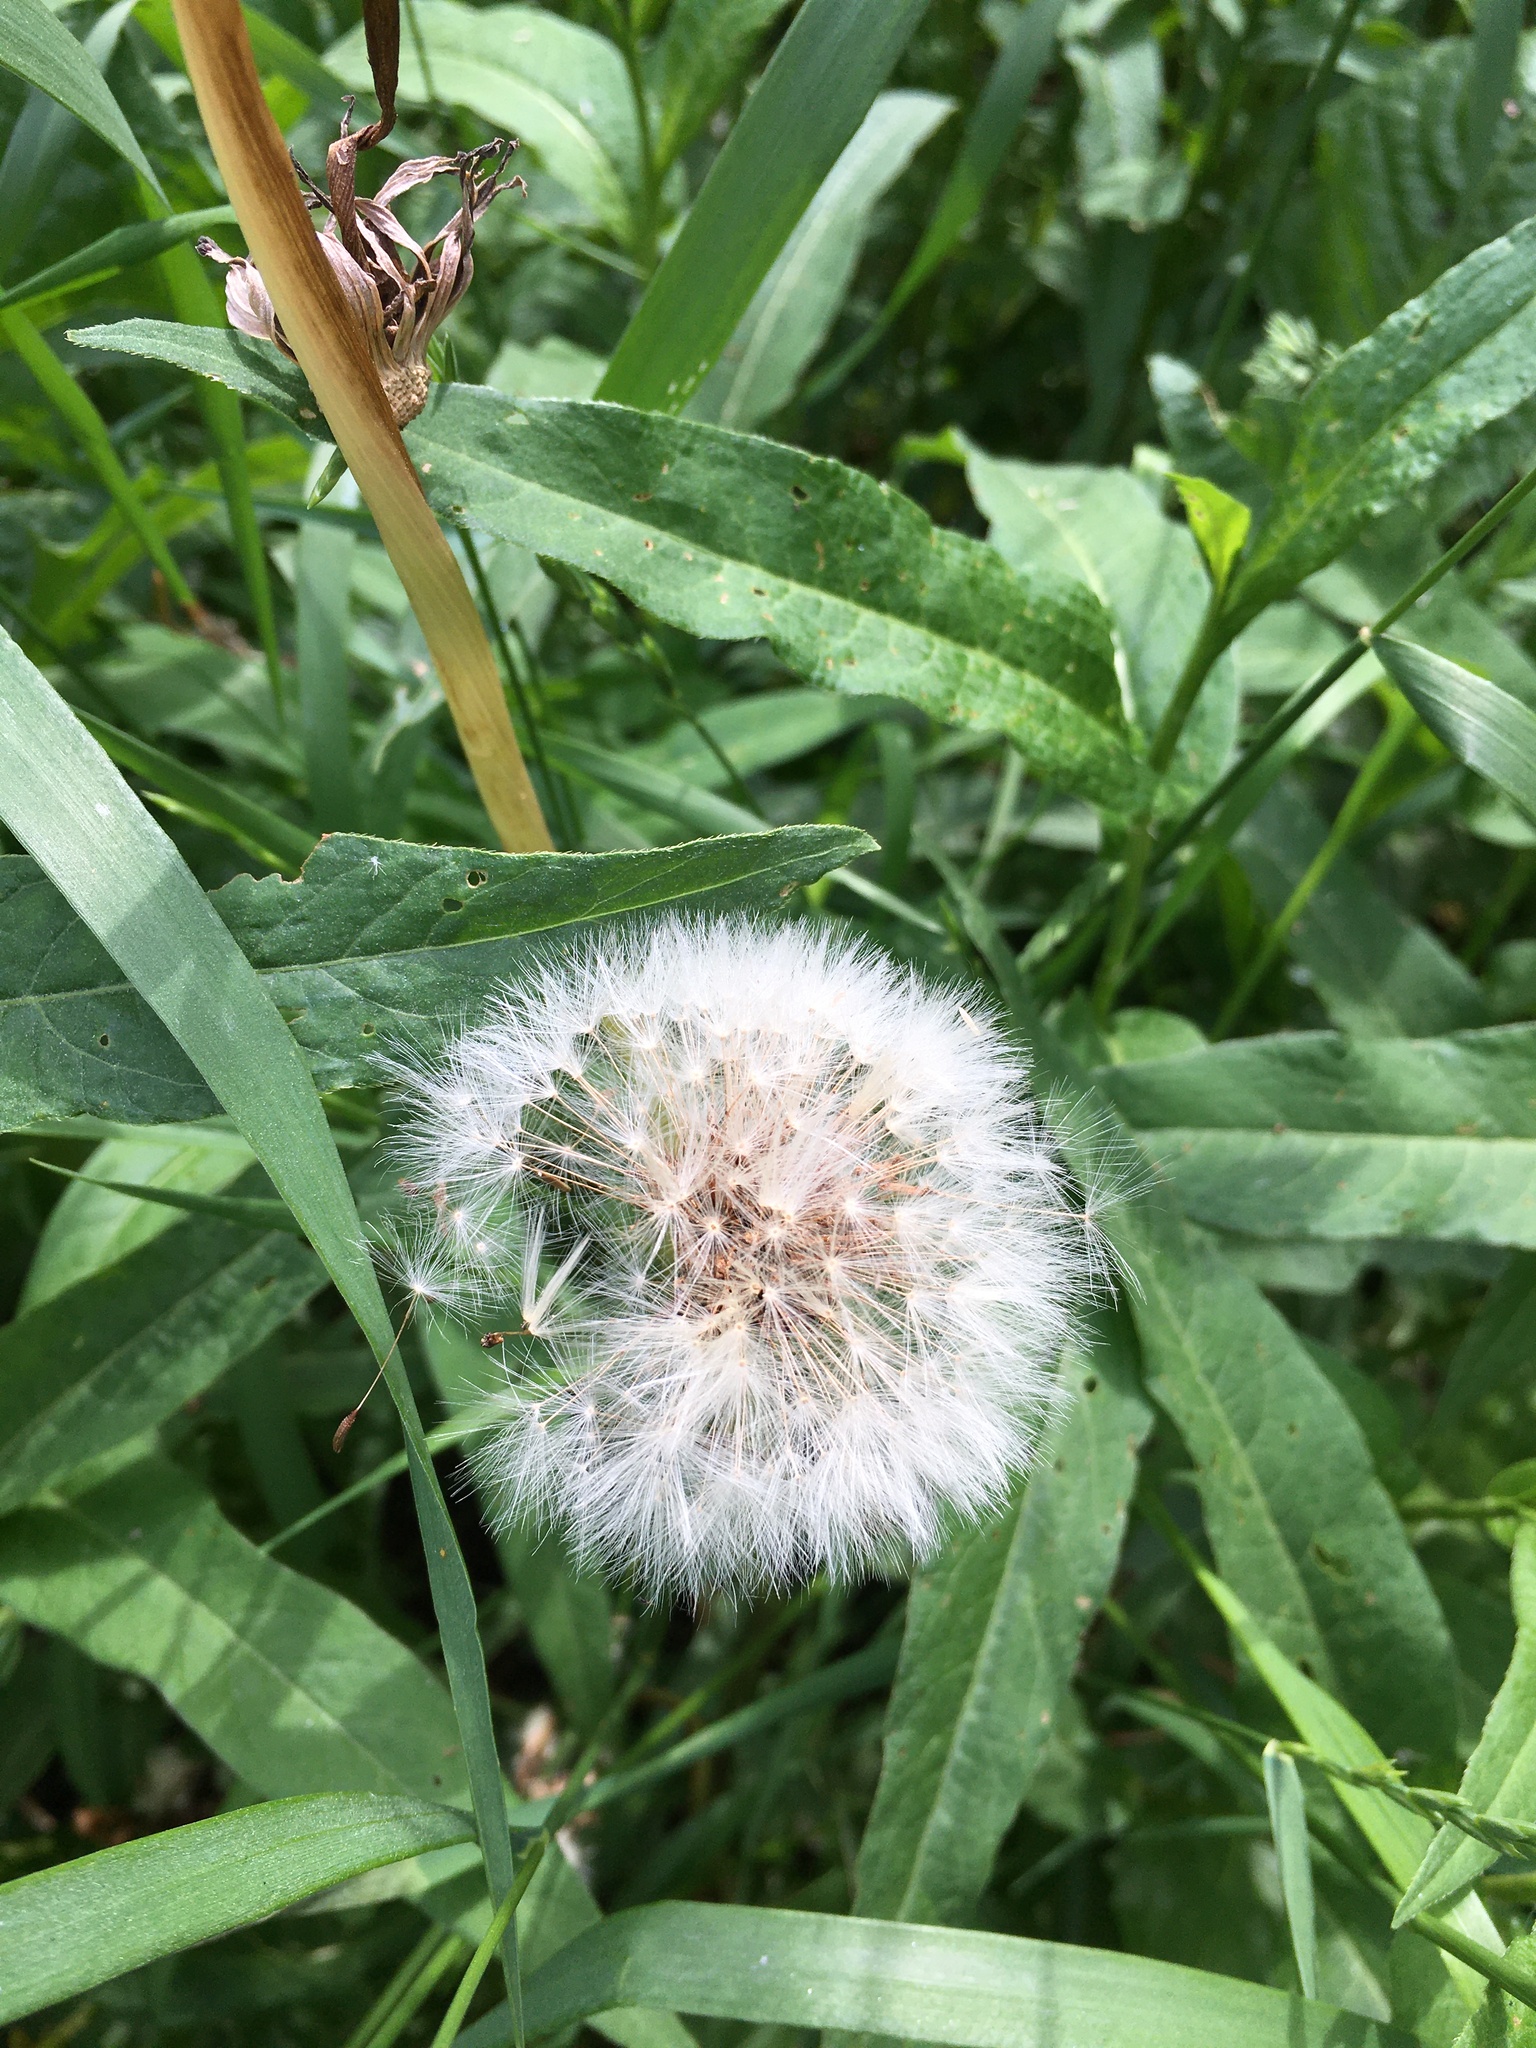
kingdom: Plantae
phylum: Tracheophyta
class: Magnoliopsida
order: Asterales
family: Asteraceae
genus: Taraxacum
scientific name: Taraxacum officinale
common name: Common dandelion
